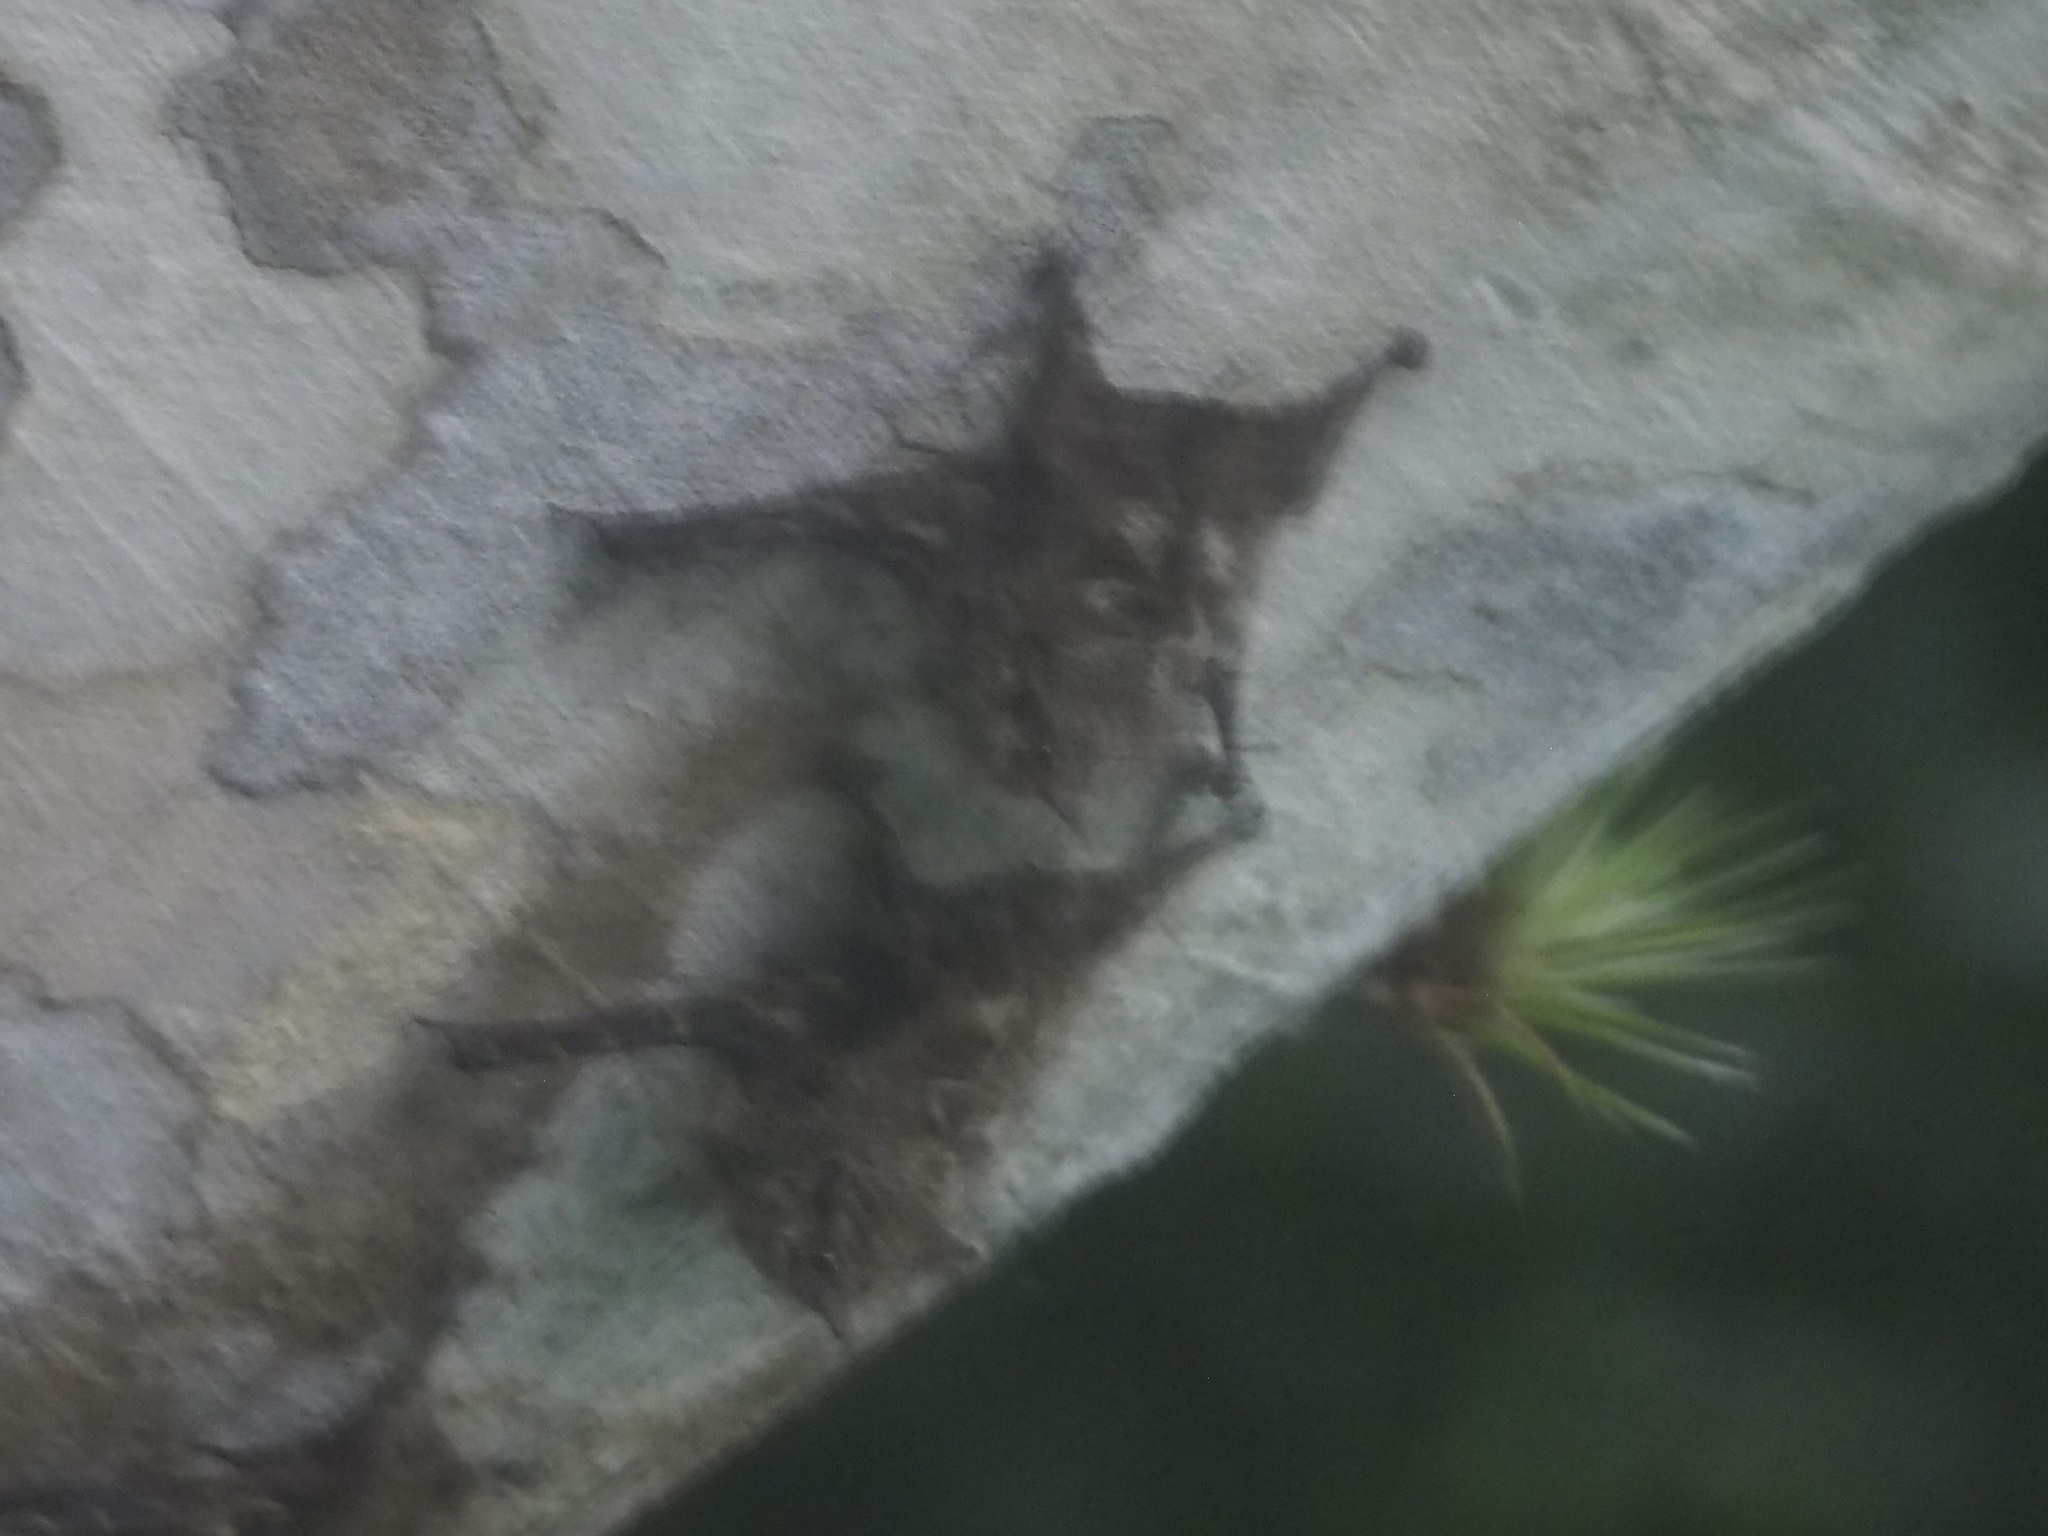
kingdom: Animalia
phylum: Chordata
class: Mammalia
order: Chiroptera
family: Emballonuridae
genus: Rhynchonycteris
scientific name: Rhynchonycteris naso
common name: Proboscis bat
